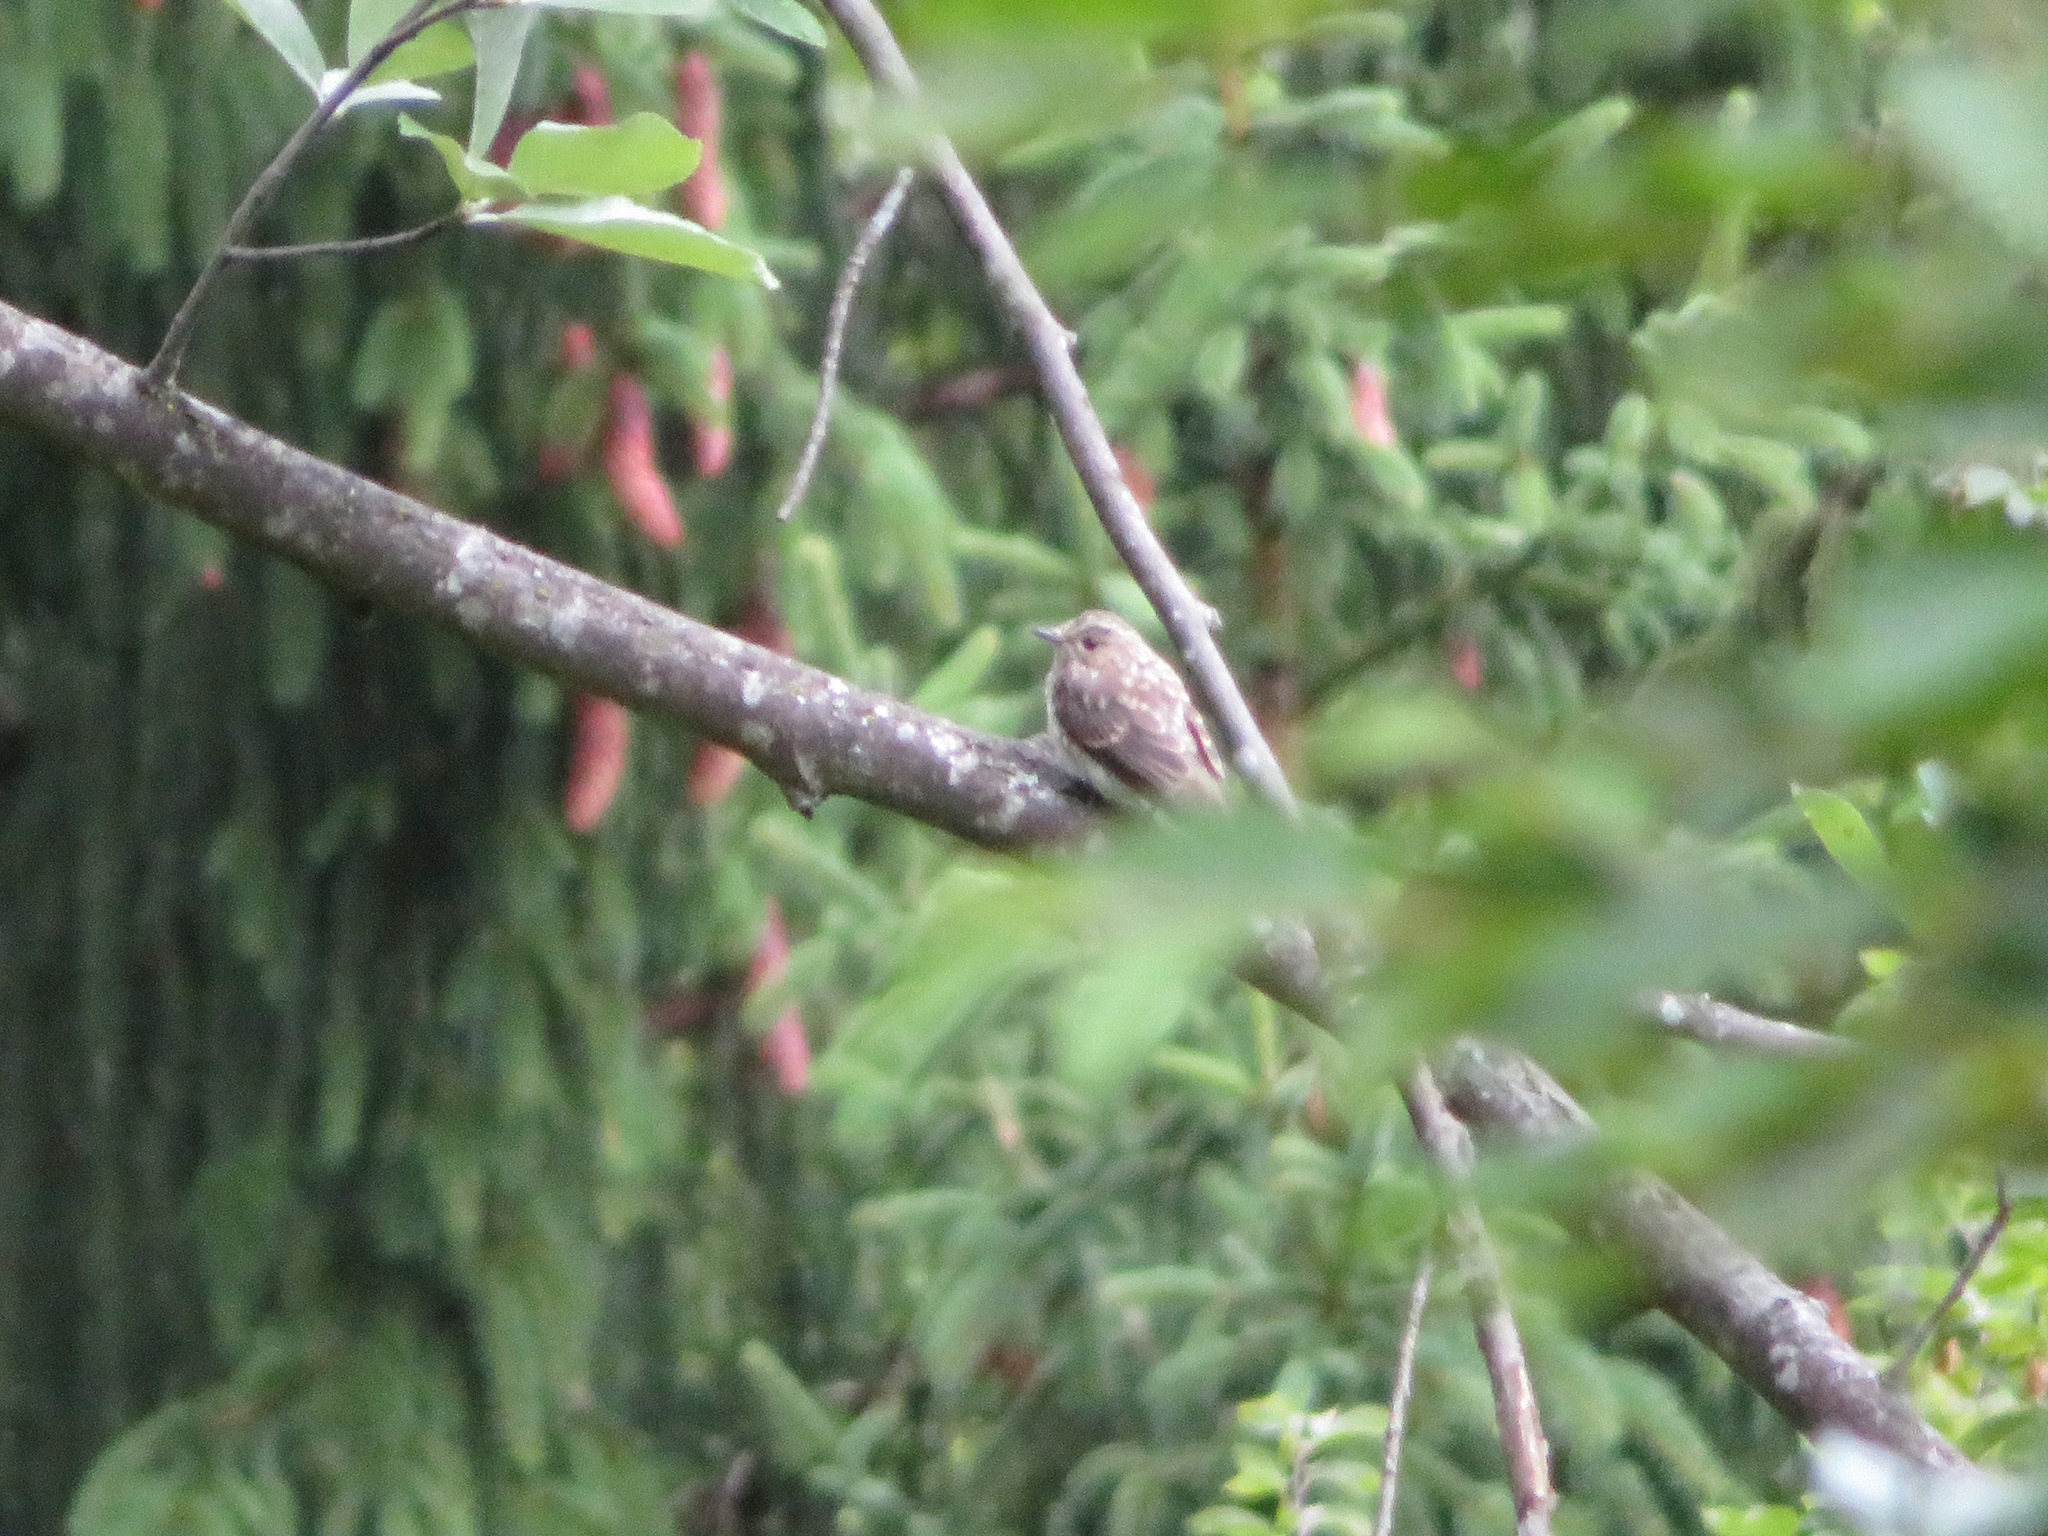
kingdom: Animalia
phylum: Chordata
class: Aves
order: Passeriformes
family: Muscicapidae
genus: Muscicapa
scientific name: Muscicapa striata
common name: Spotted flycatcher
